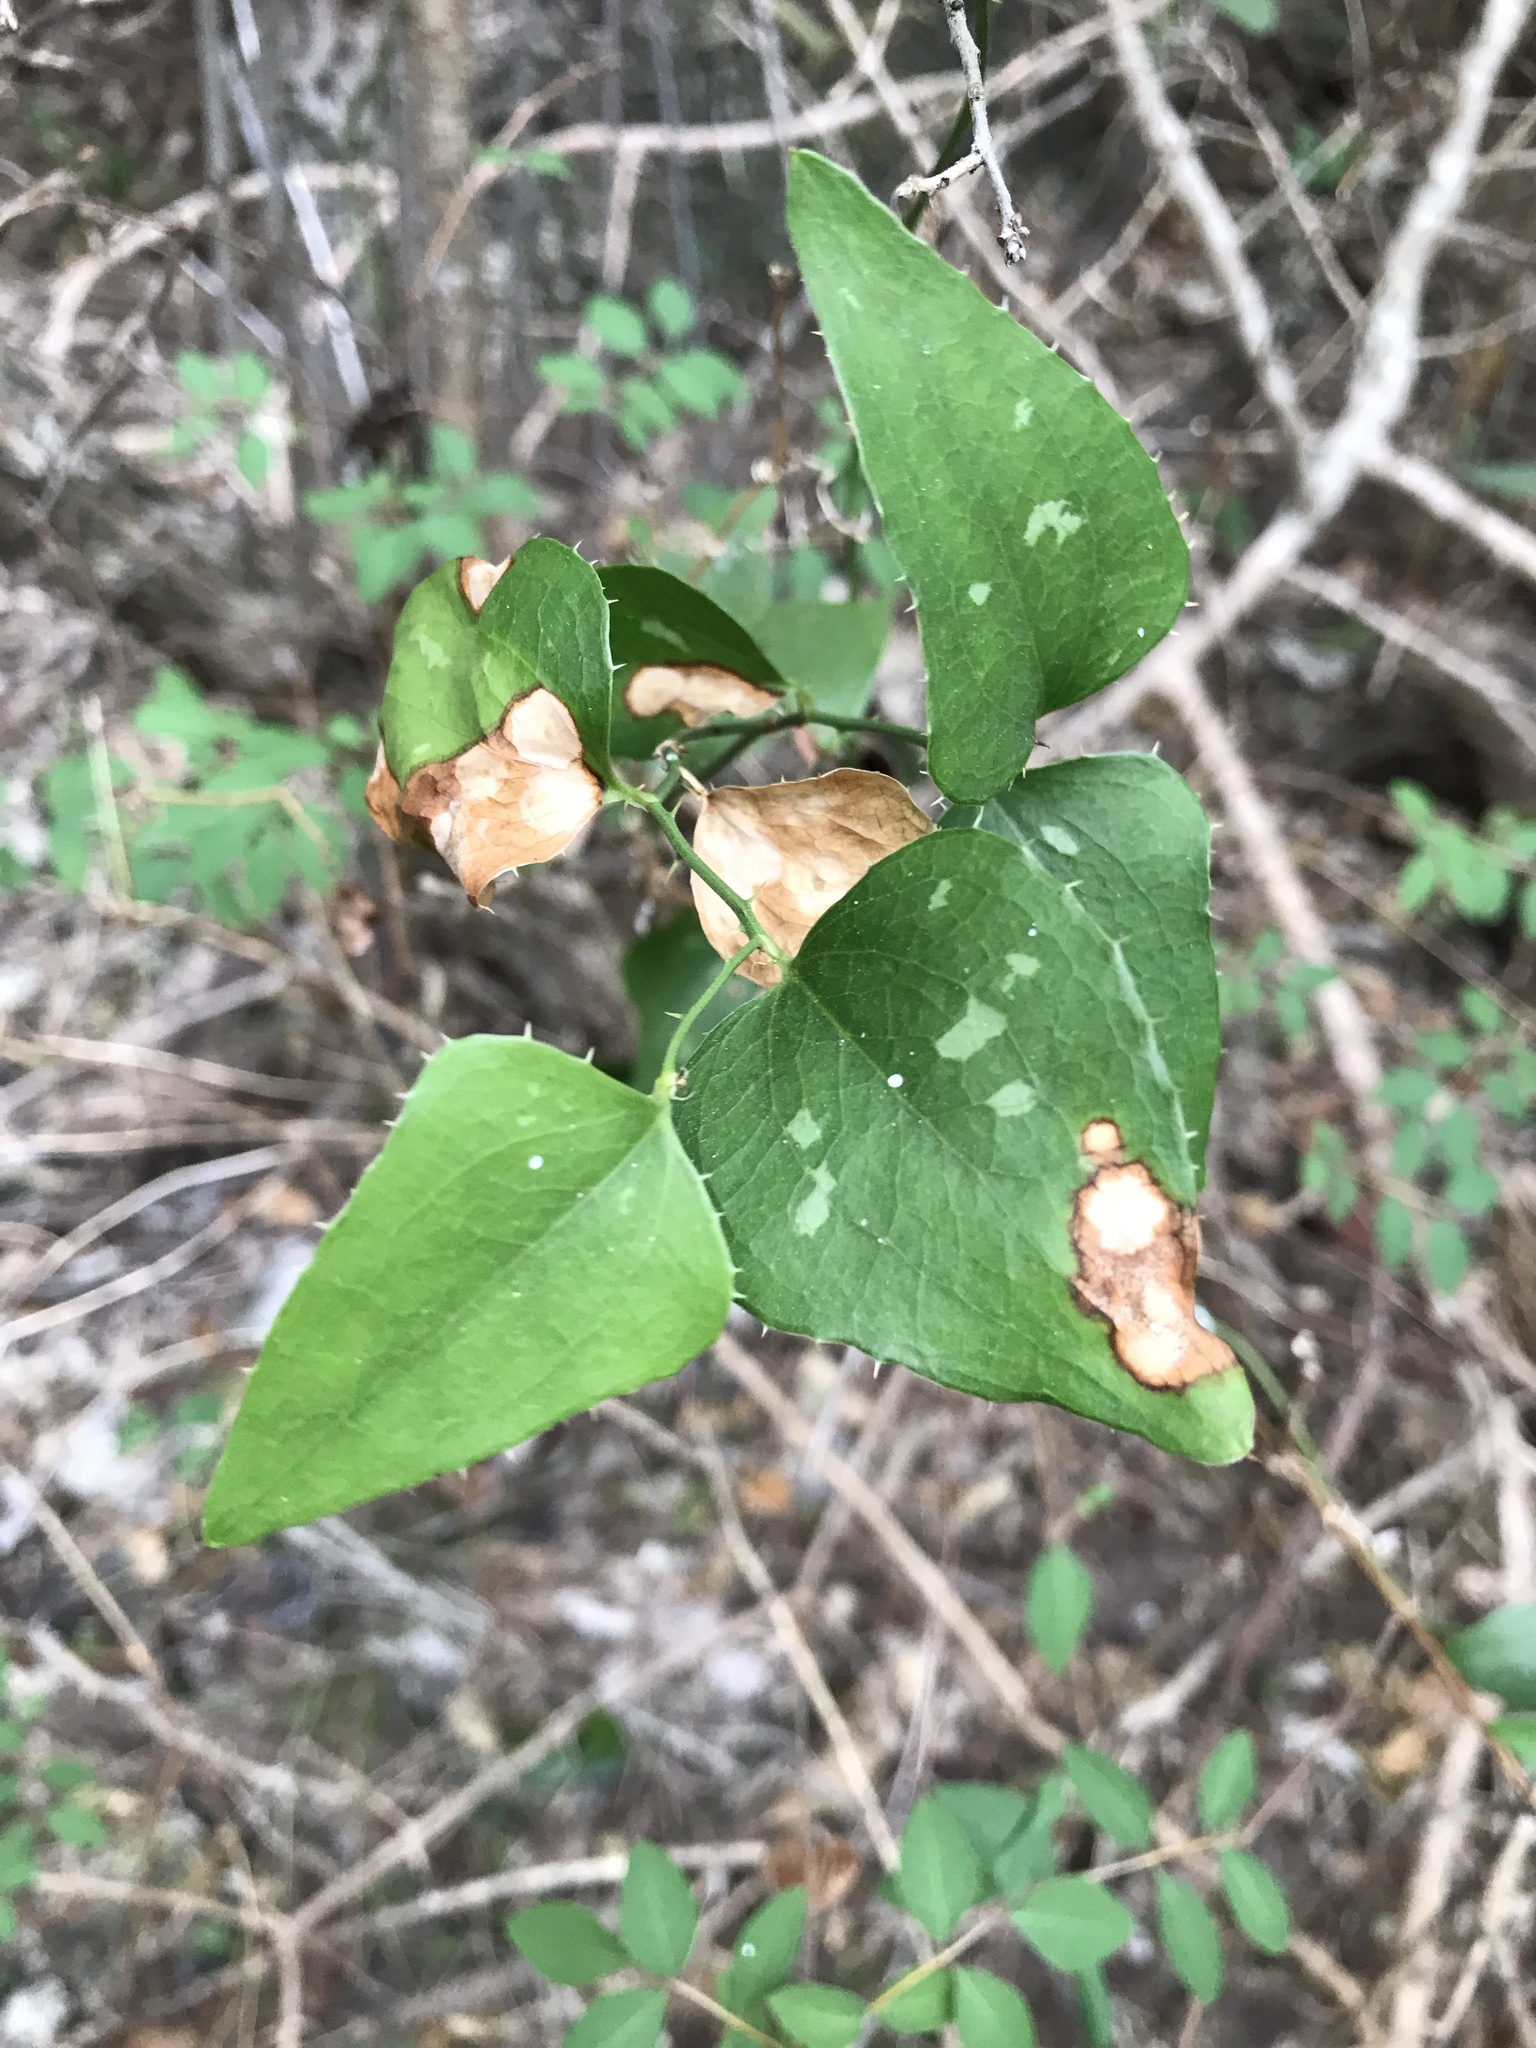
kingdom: Plantae
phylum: Tracheophyta
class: Liliopsida
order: Liliales
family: Smilacaceae
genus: Smilax
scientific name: Smilax bona-nox
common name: Catbrier
